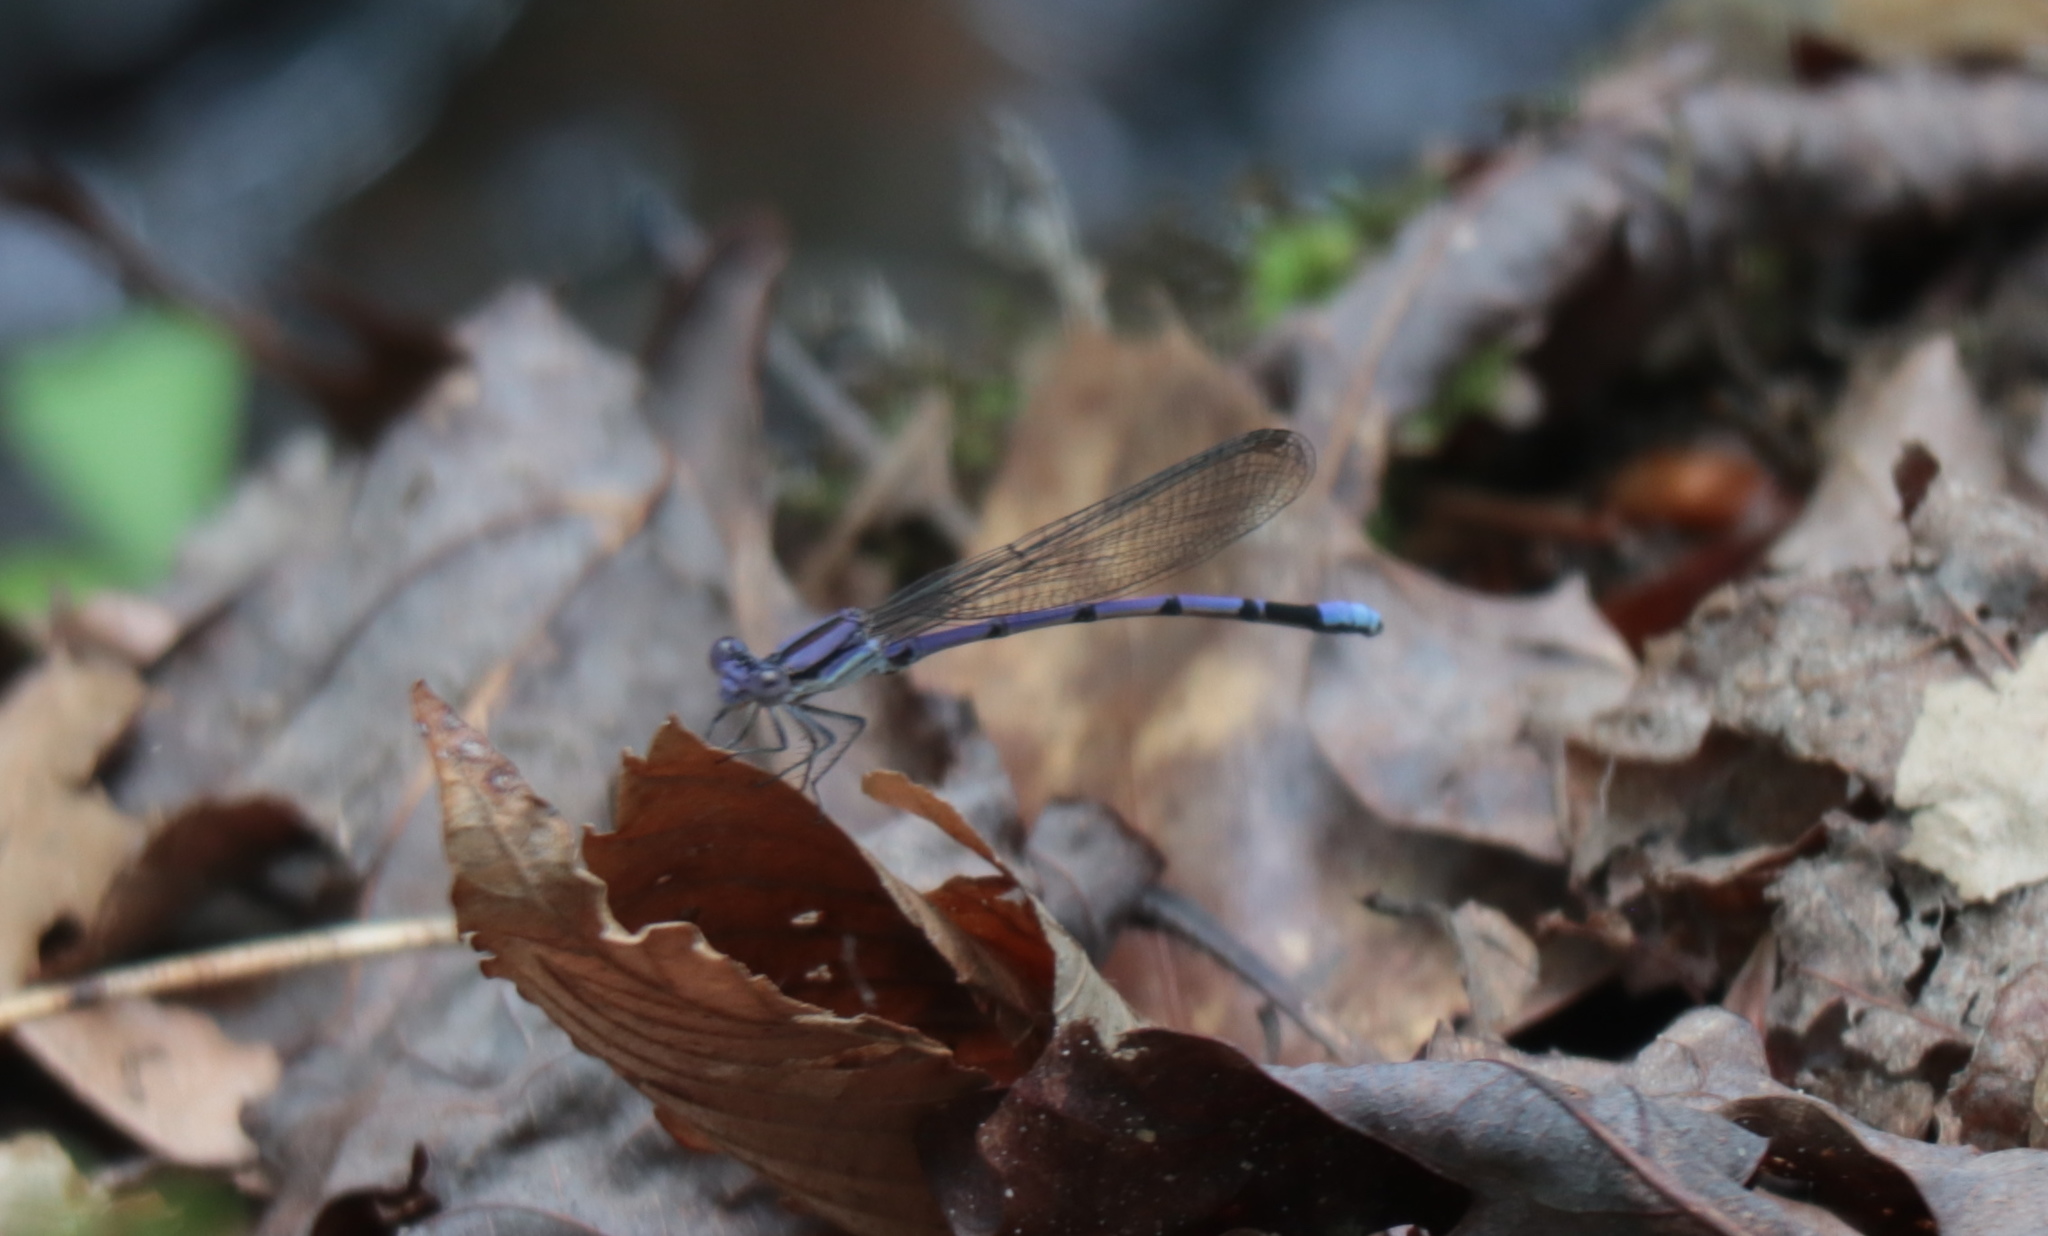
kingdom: Animalia
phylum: Arthropoda
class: Insecta
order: Odonata
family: Coenagrionidae
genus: Argia
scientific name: Argia fumipennis
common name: Variable dancer
